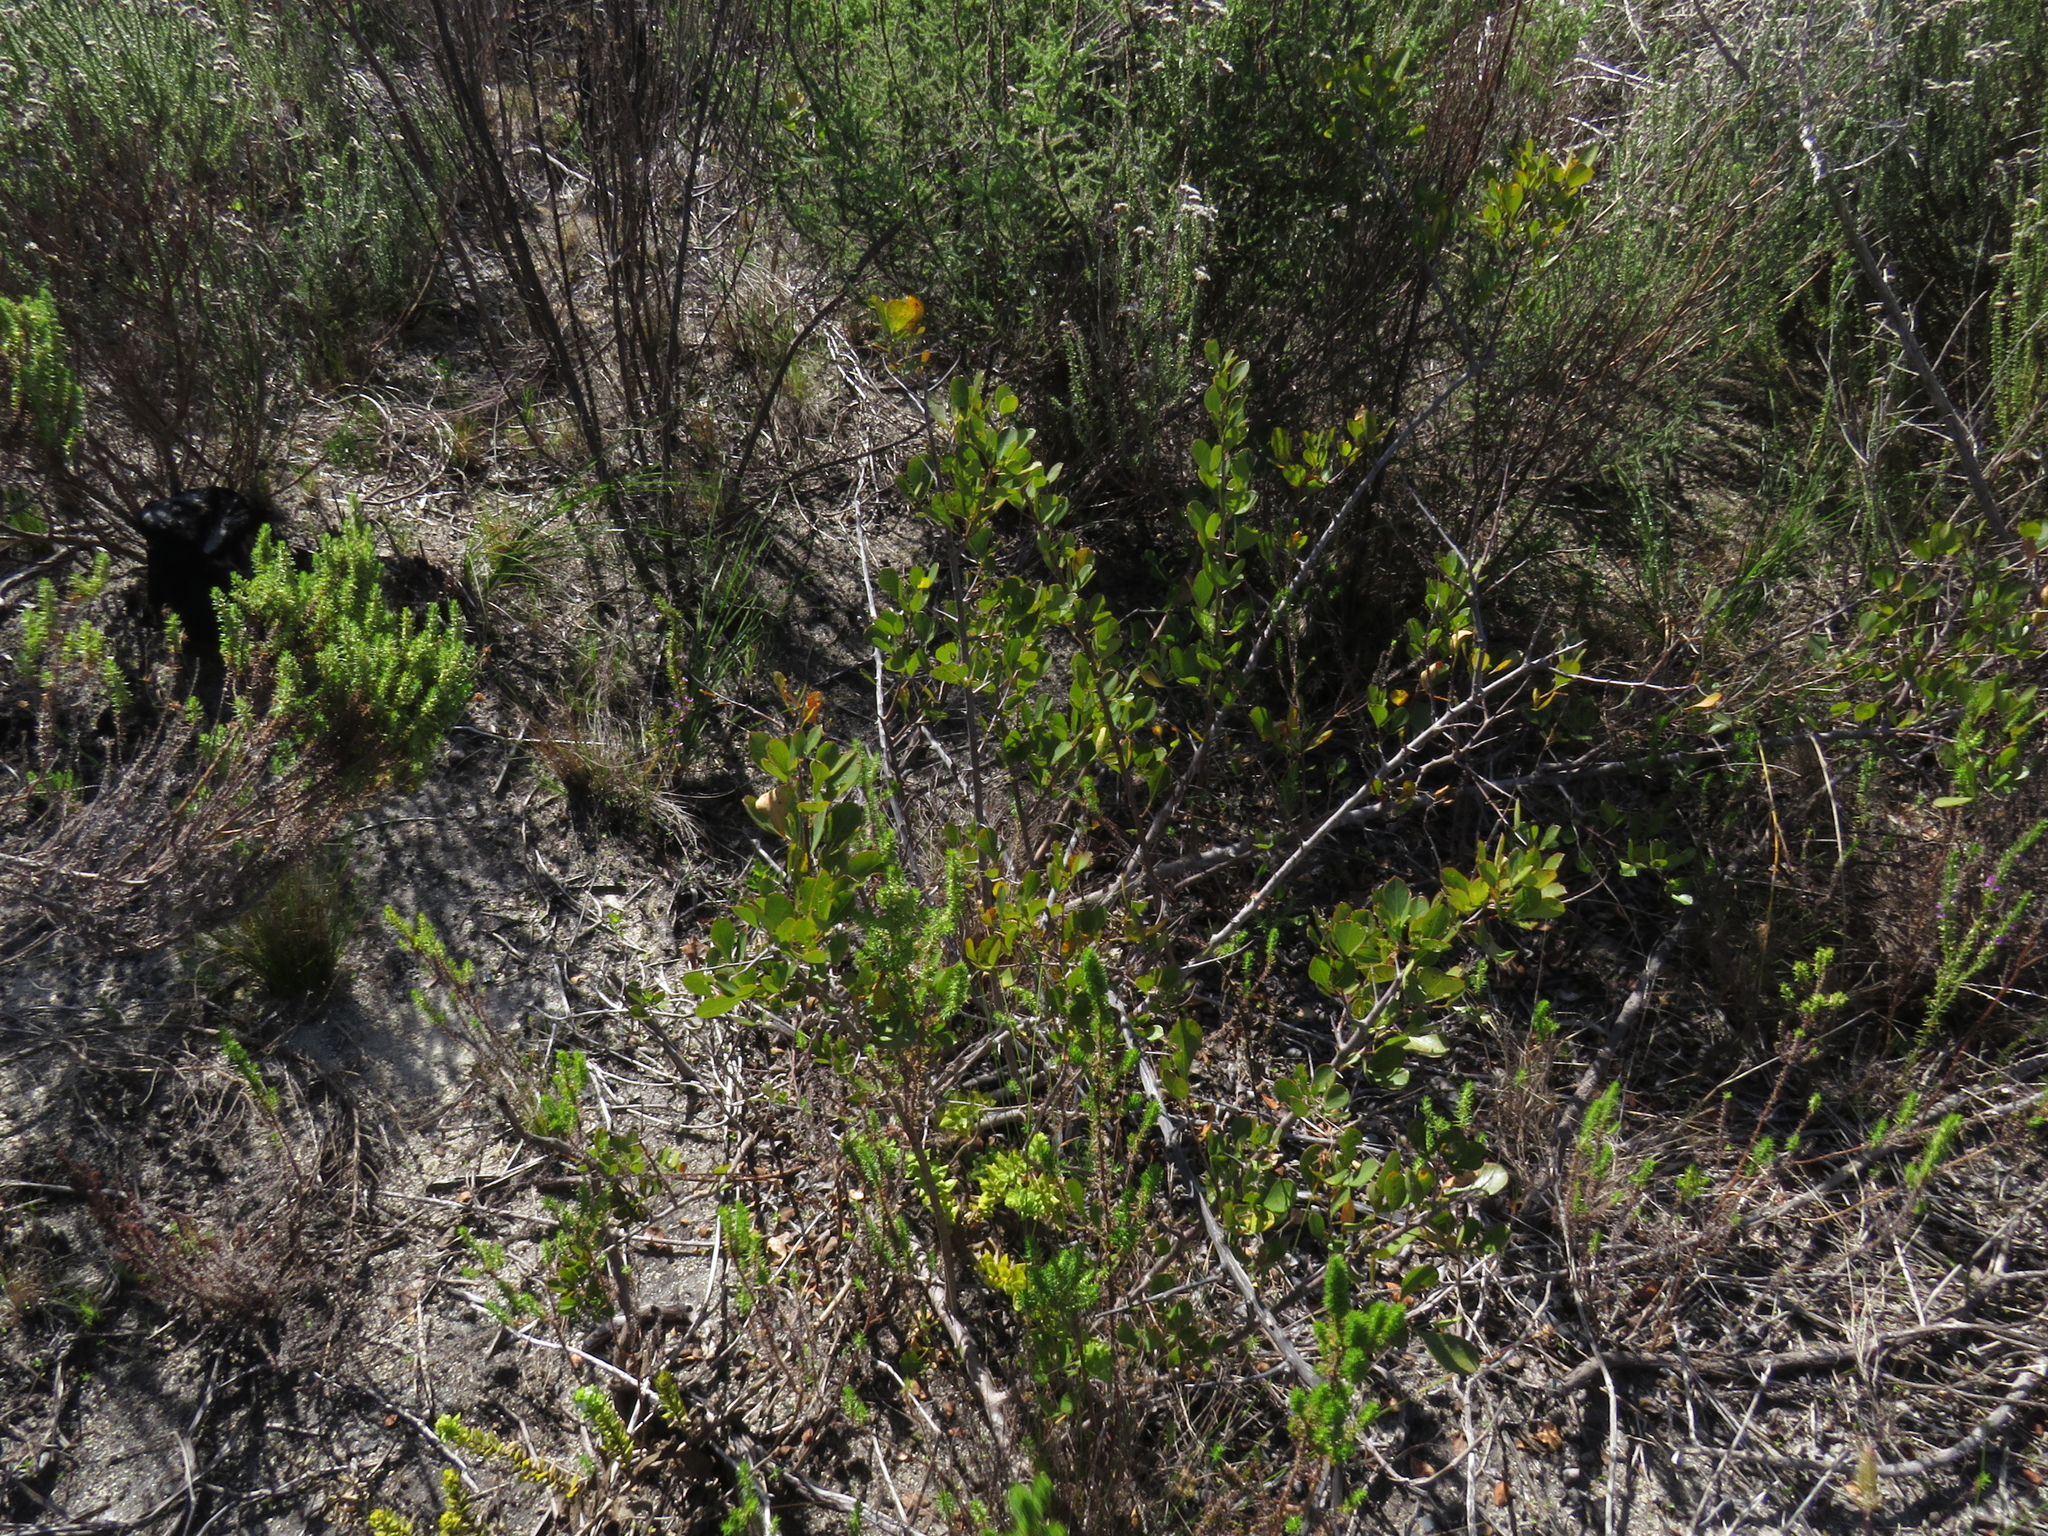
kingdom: Plantae
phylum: Tracheophyta
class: Magnoliopsida
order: Sapindales
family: Anacardiaceae
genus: Searsia
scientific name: Searsia laevigata
